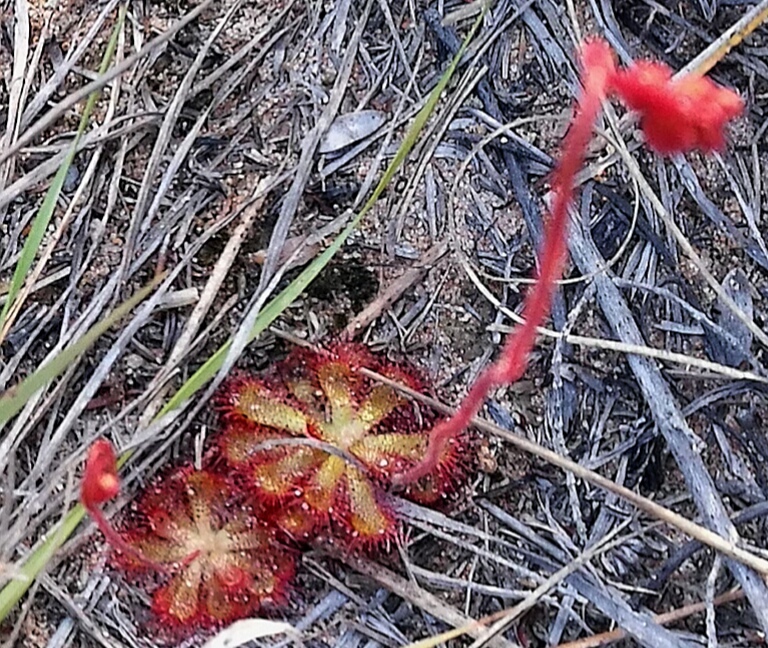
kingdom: Plantae
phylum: Tracheophyta
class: Magnoliopsida
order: Caryophyllales
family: Droseraceae
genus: Drosera
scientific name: Drosera aliciae
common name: Alice sundew
